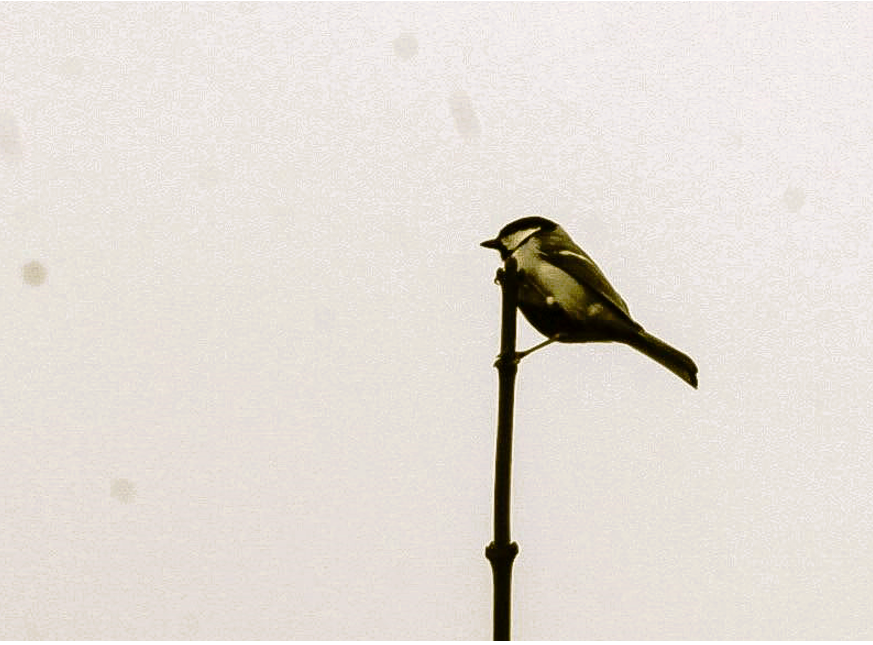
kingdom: Animalia
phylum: Chordata
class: Aves
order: Passeriformes
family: Paridae
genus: Parus
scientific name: Parus major
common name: Great tit
